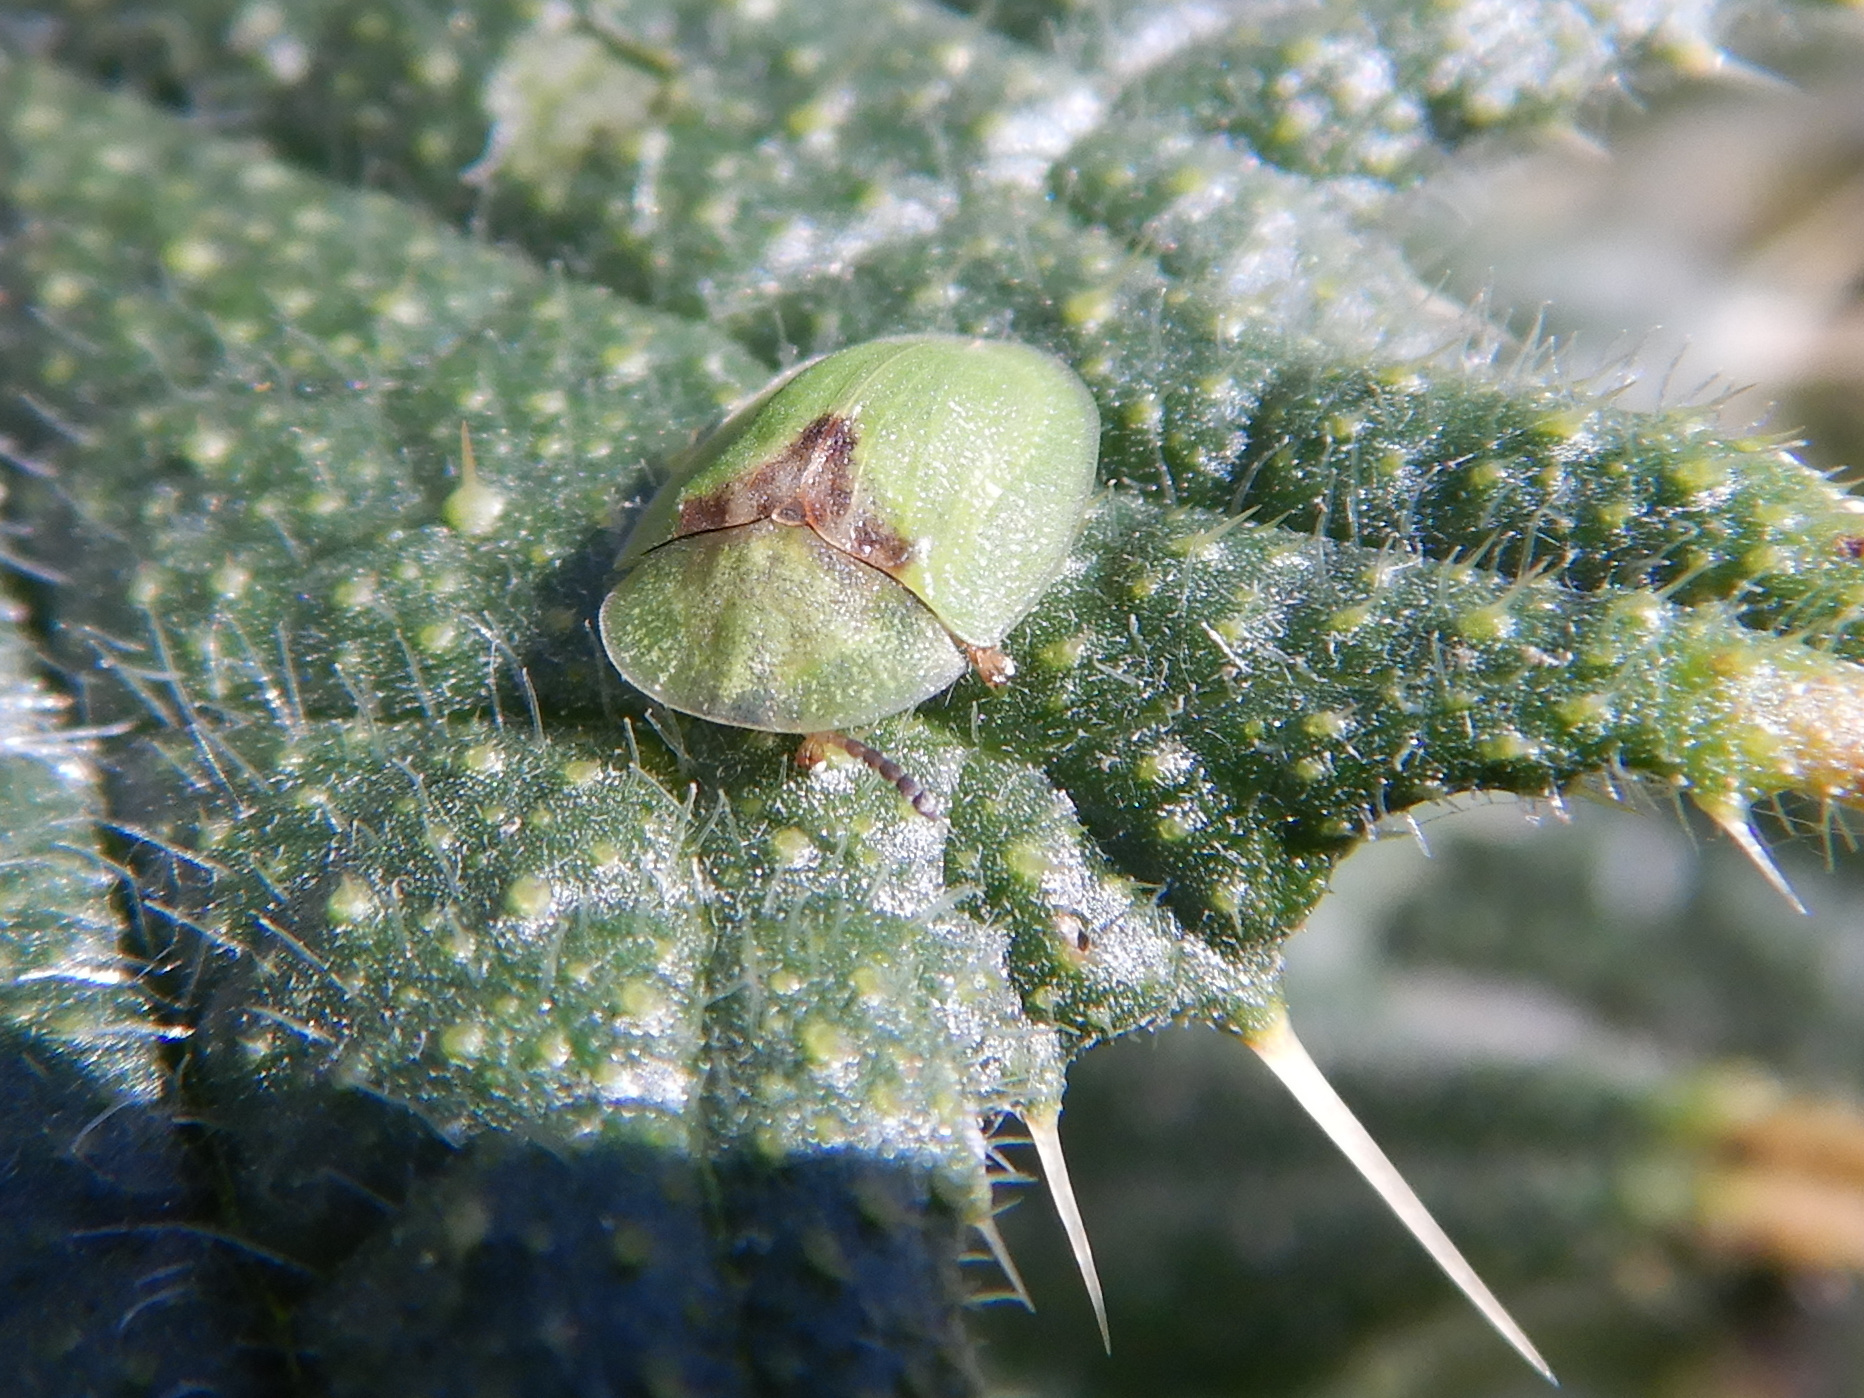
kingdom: Animalia
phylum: Arthropoda
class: Insecta
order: Coleoptera
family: Chrysomelidae
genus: Cassida
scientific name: Cassida rubiginosa
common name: Thistle tortoise beetle
